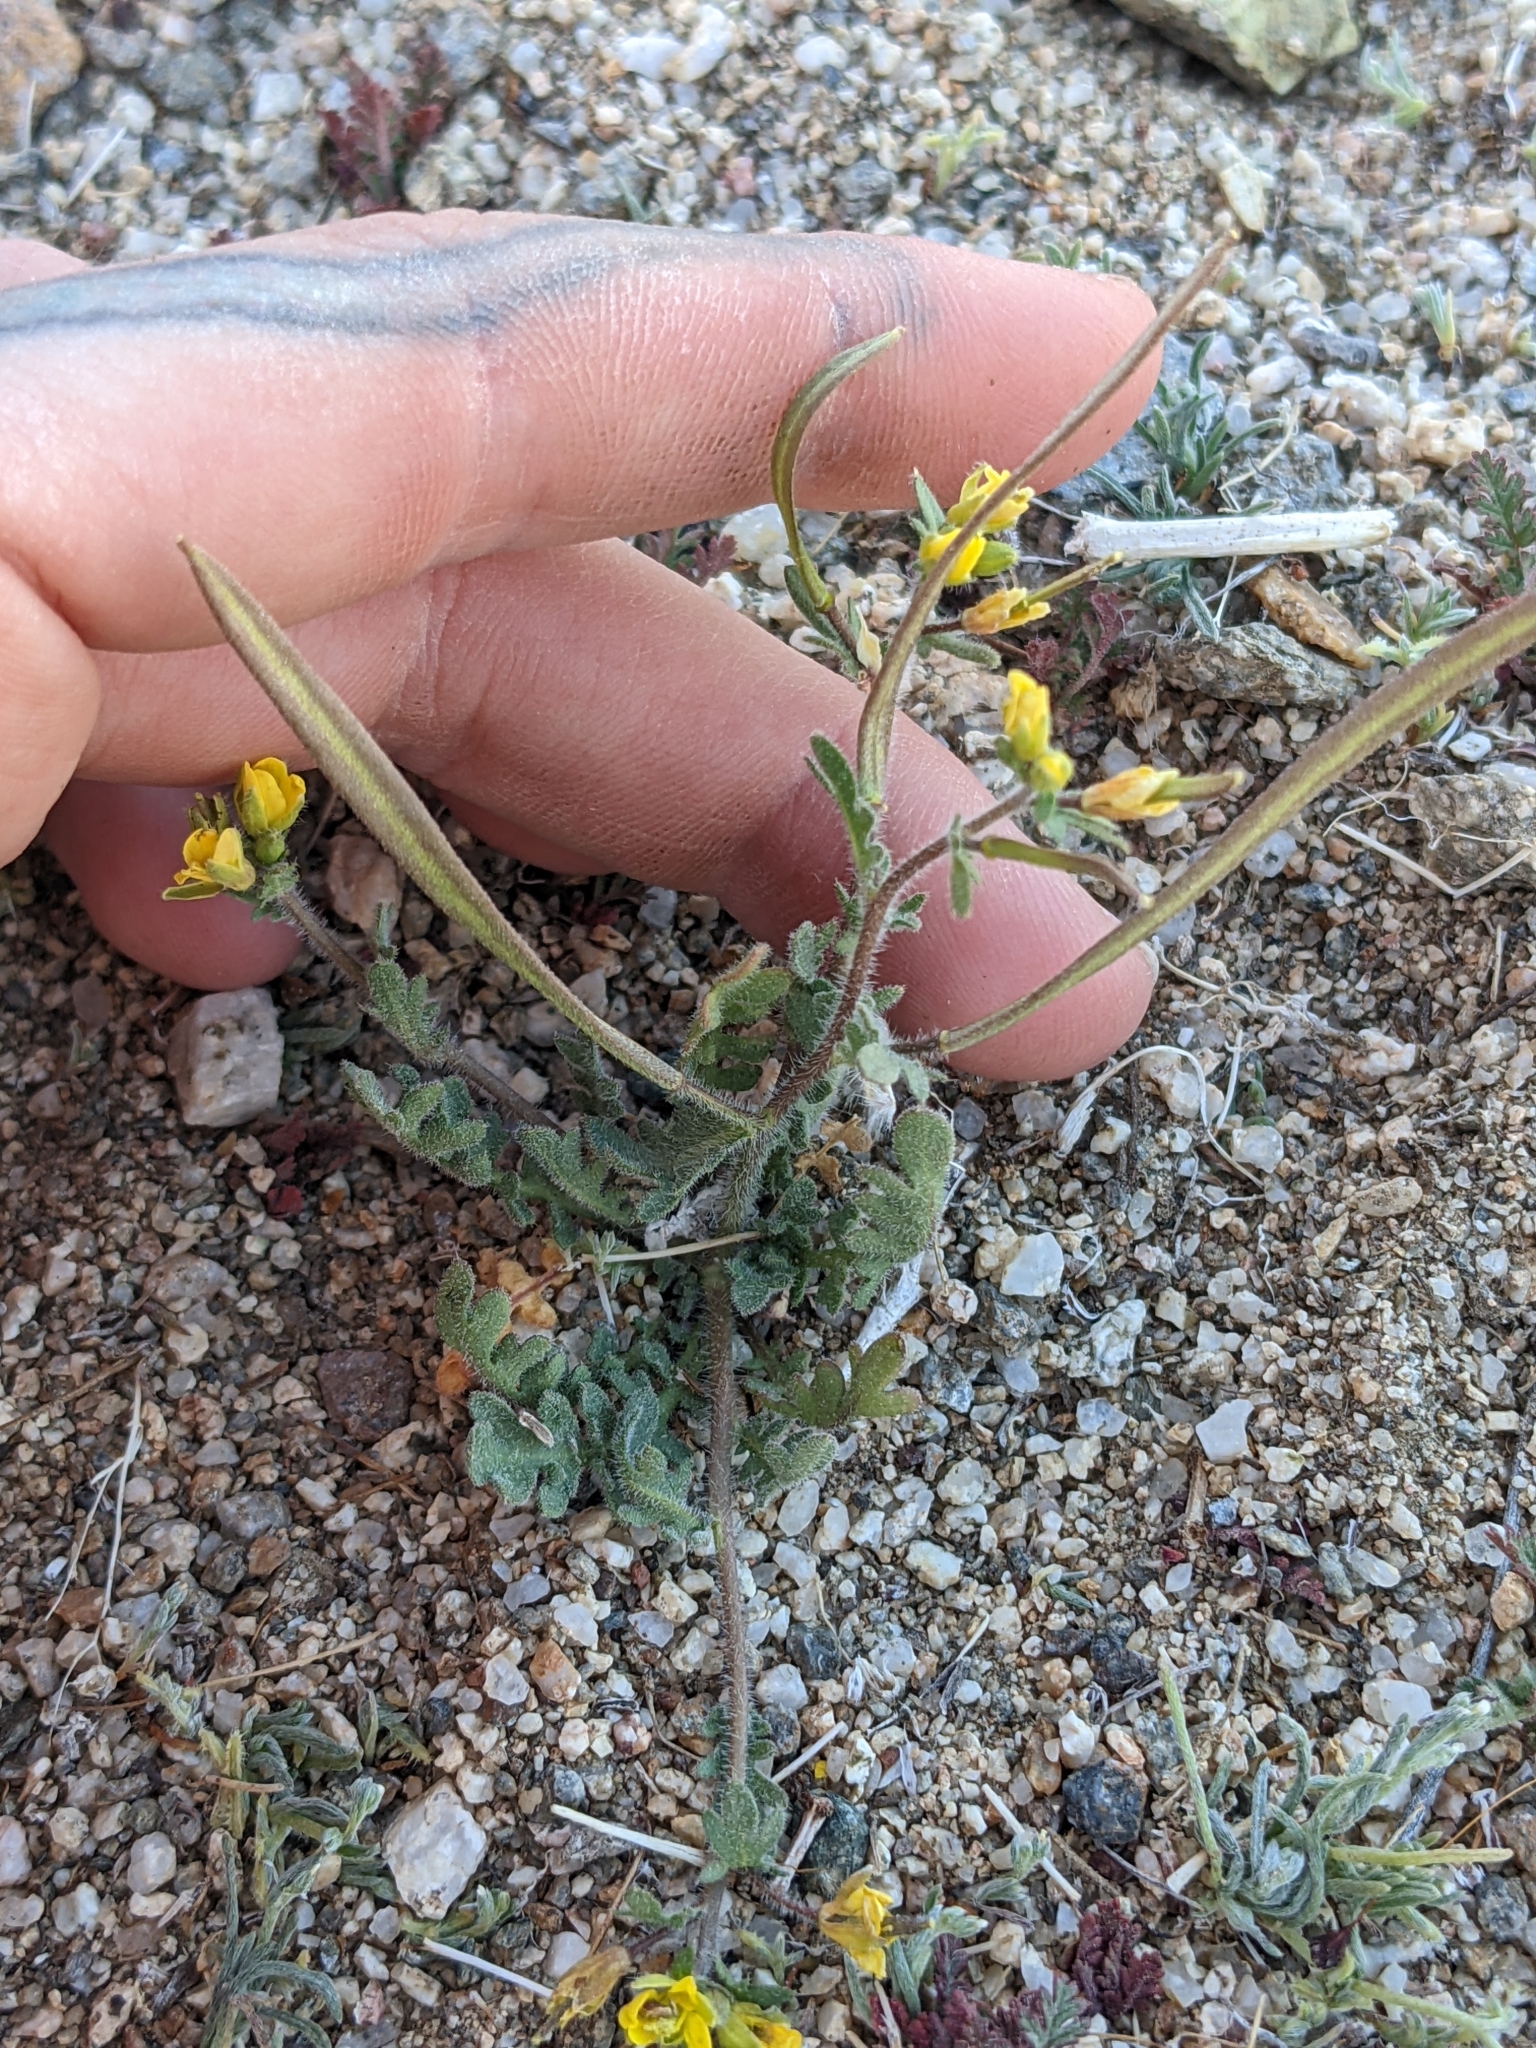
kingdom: Plantae
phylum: Tracheophyta
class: Magnoliopsida
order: Brassicales
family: Brassicaceae
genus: Tropidocarpum
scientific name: Tropidocarpum gracile
